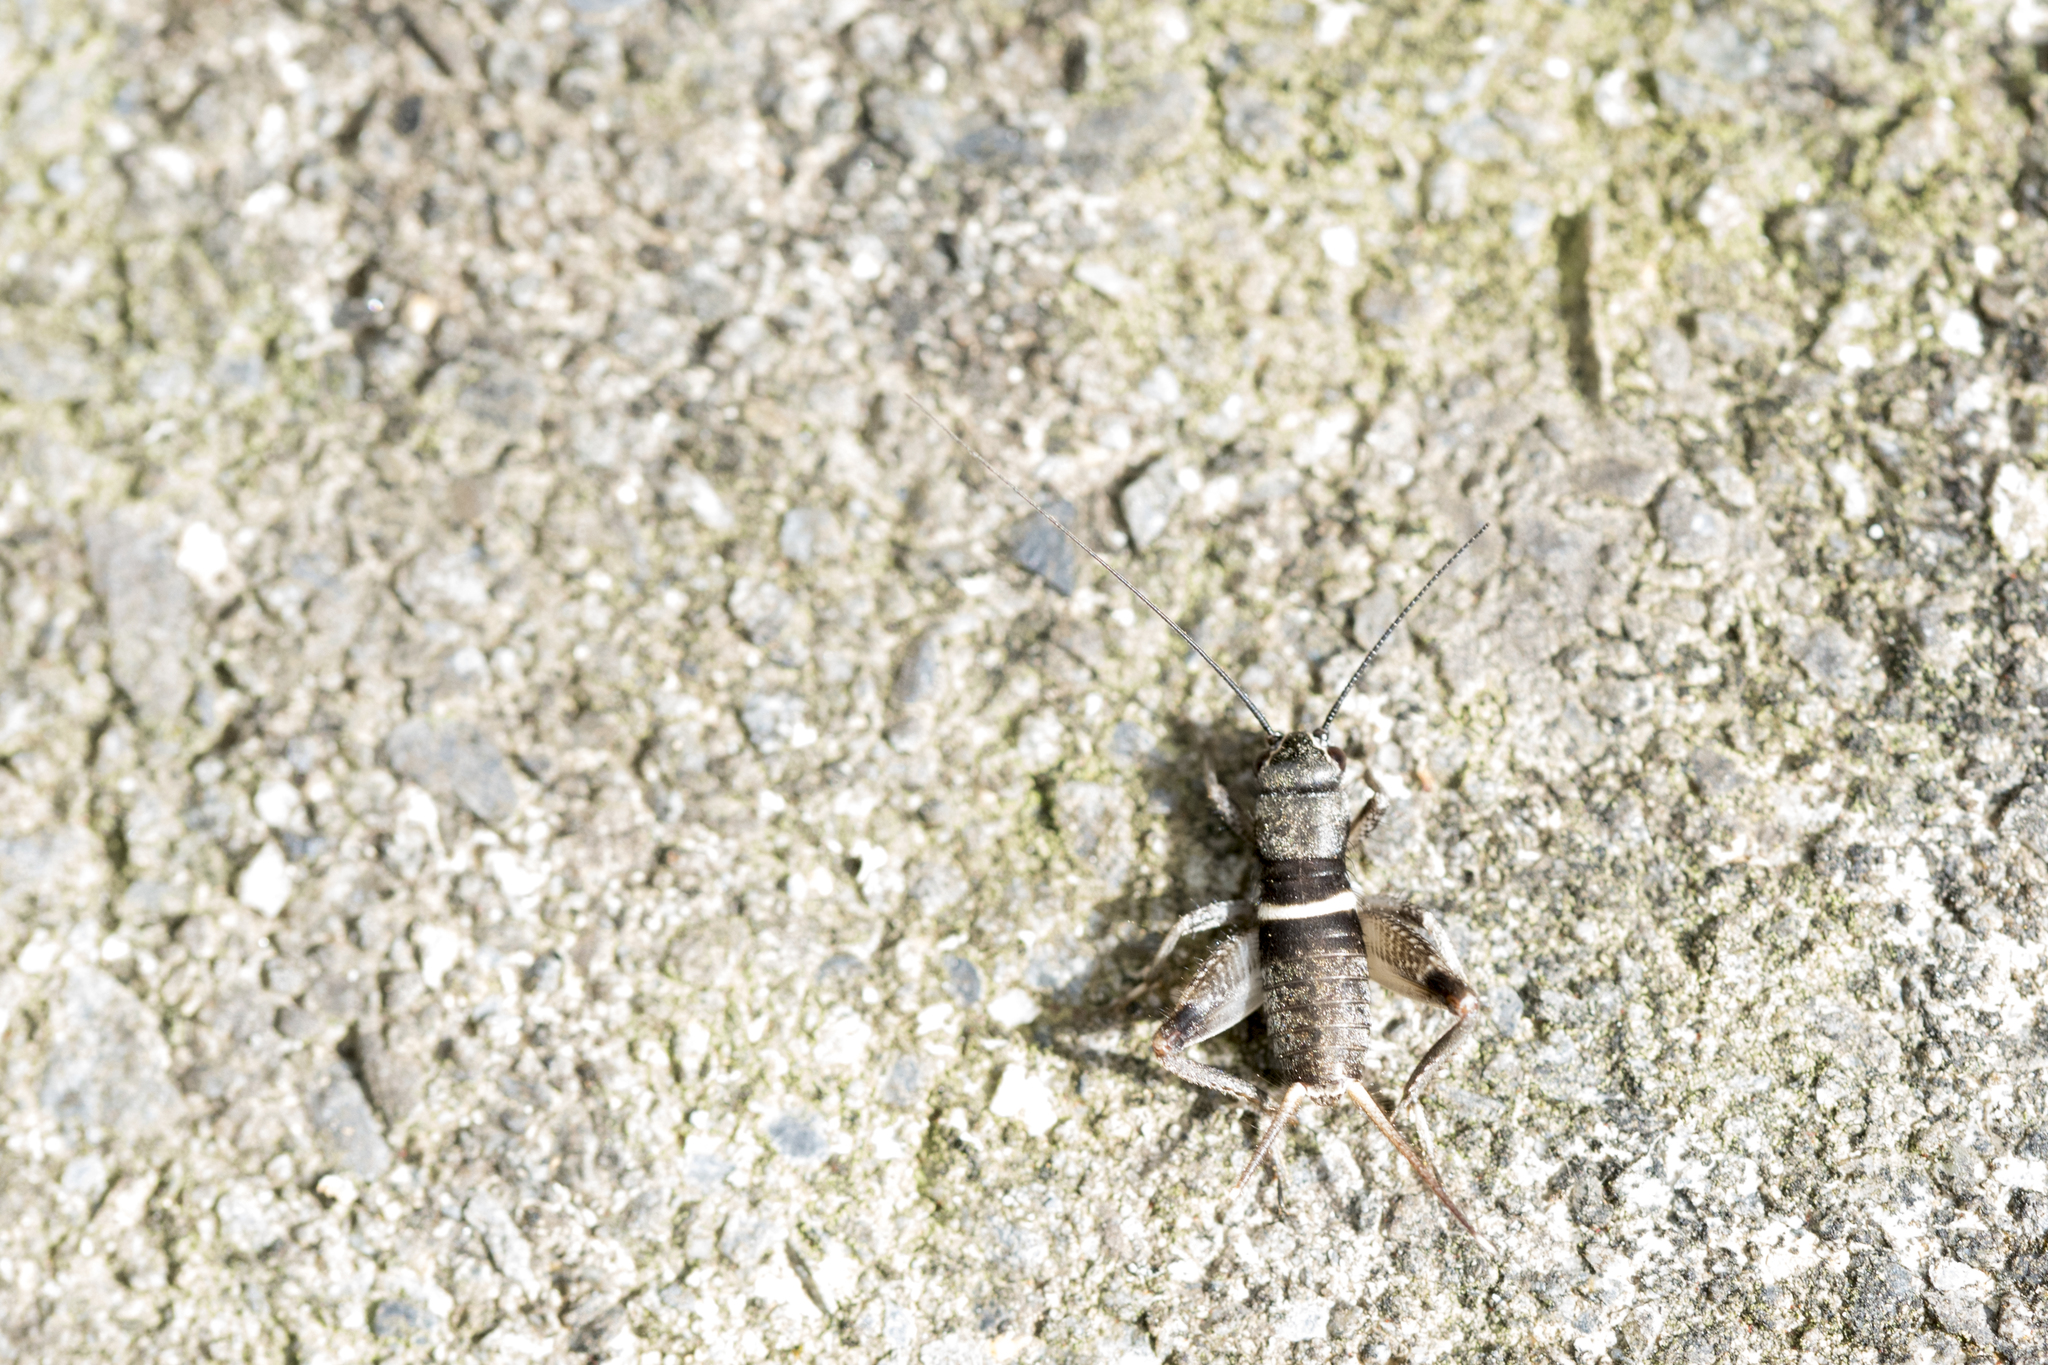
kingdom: Animalia
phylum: Arthropoda
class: Insecta
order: Orthoptera
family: Gryllidae
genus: Teleogryllus
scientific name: Teleogryllus mitratus
